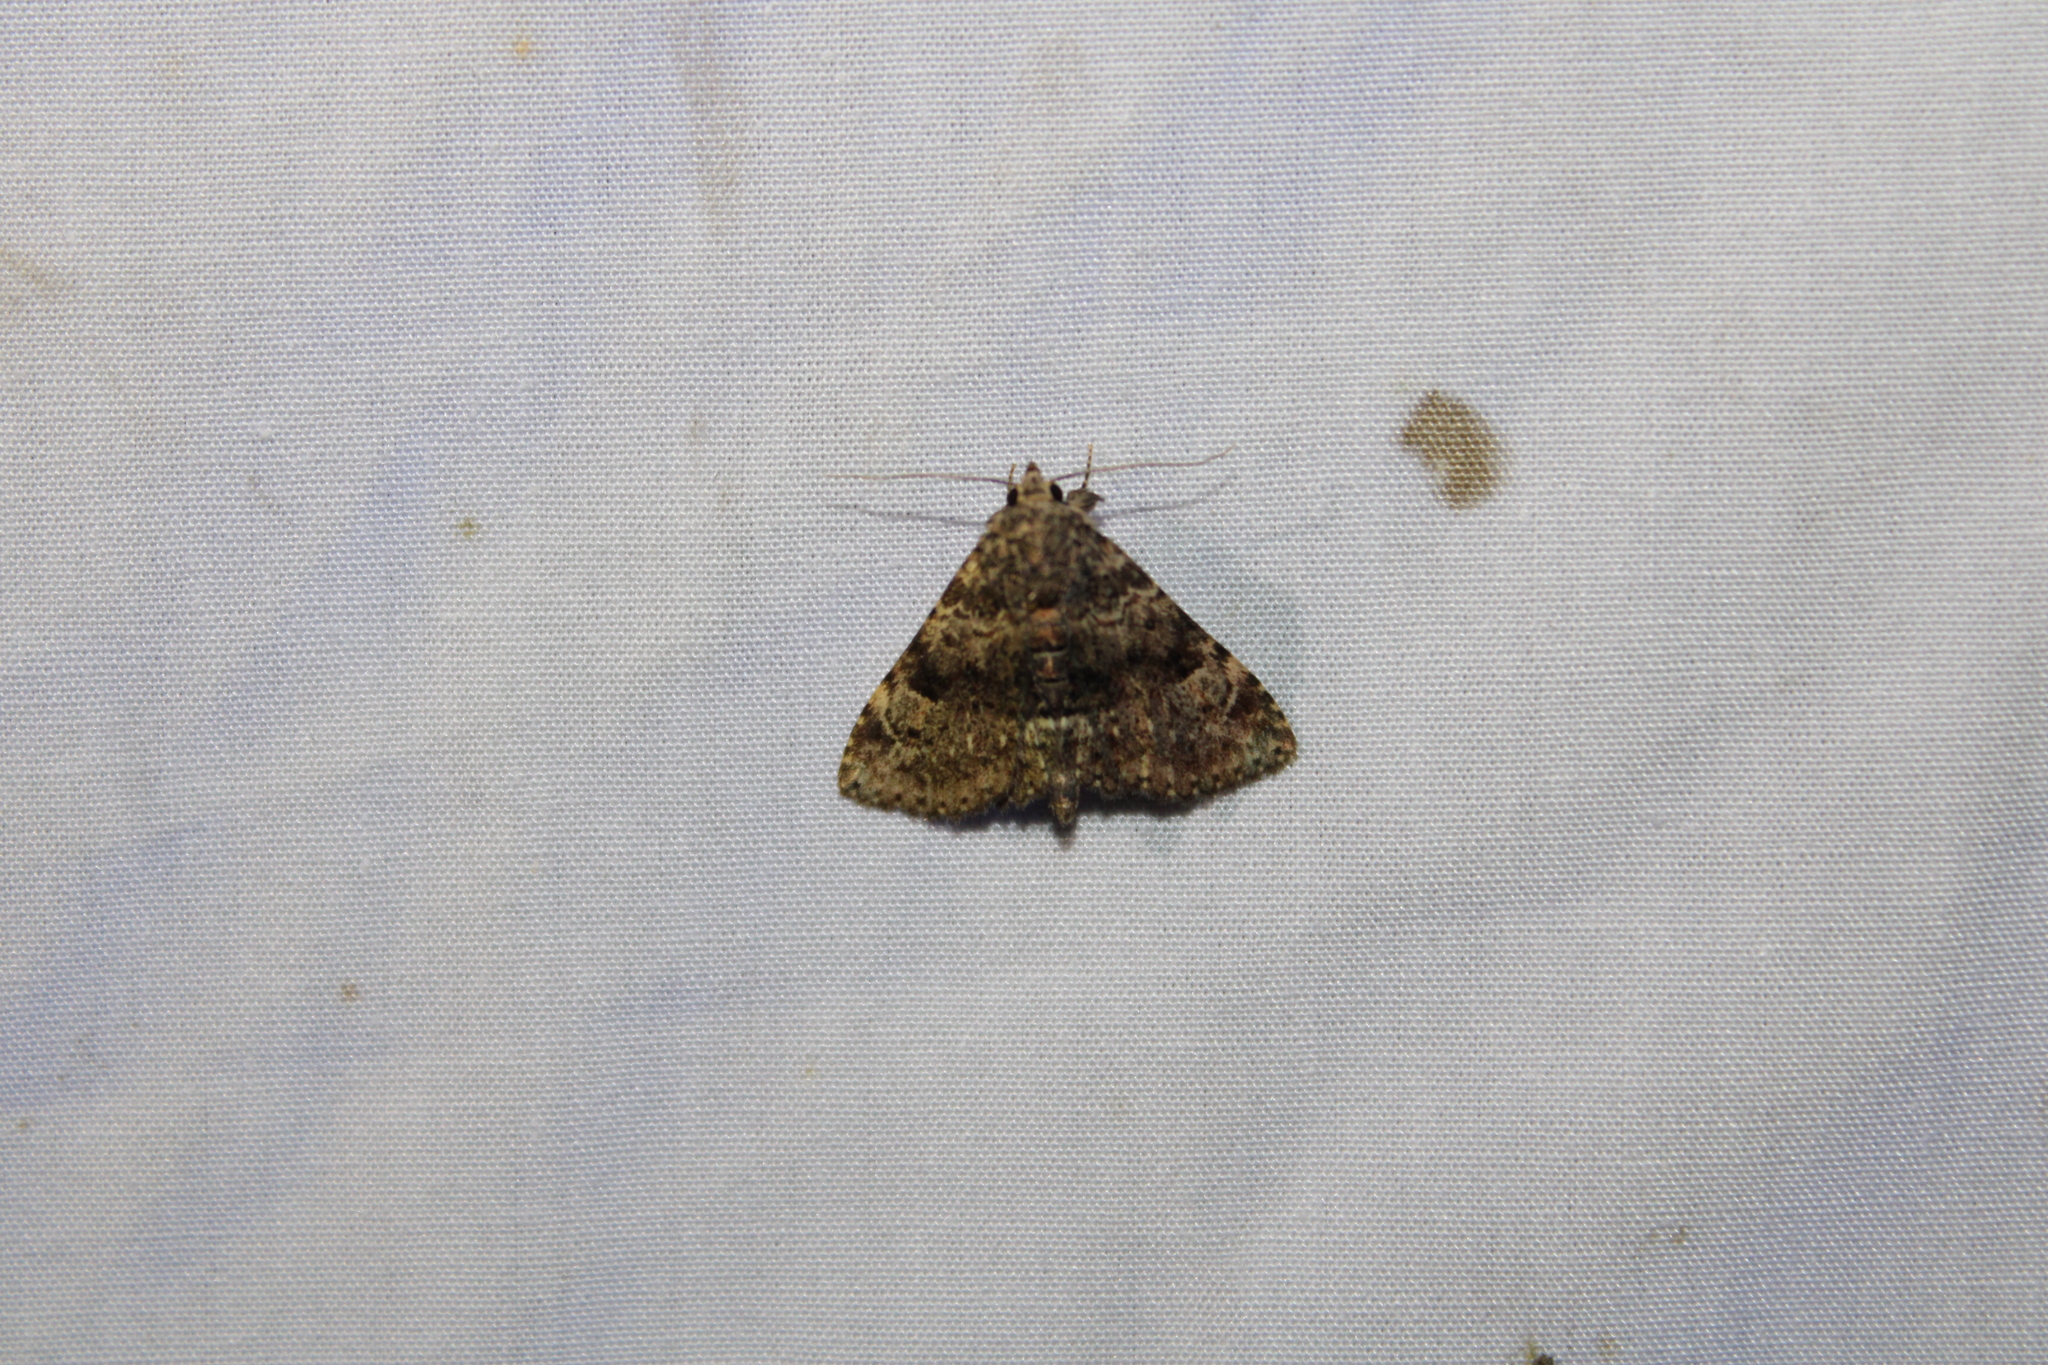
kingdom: Animalia
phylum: Arthropoda
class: Insecta
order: Lepidoptera
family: Erebidae
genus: Metalectra
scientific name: Metalectra discalis
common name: Common fungus moth
